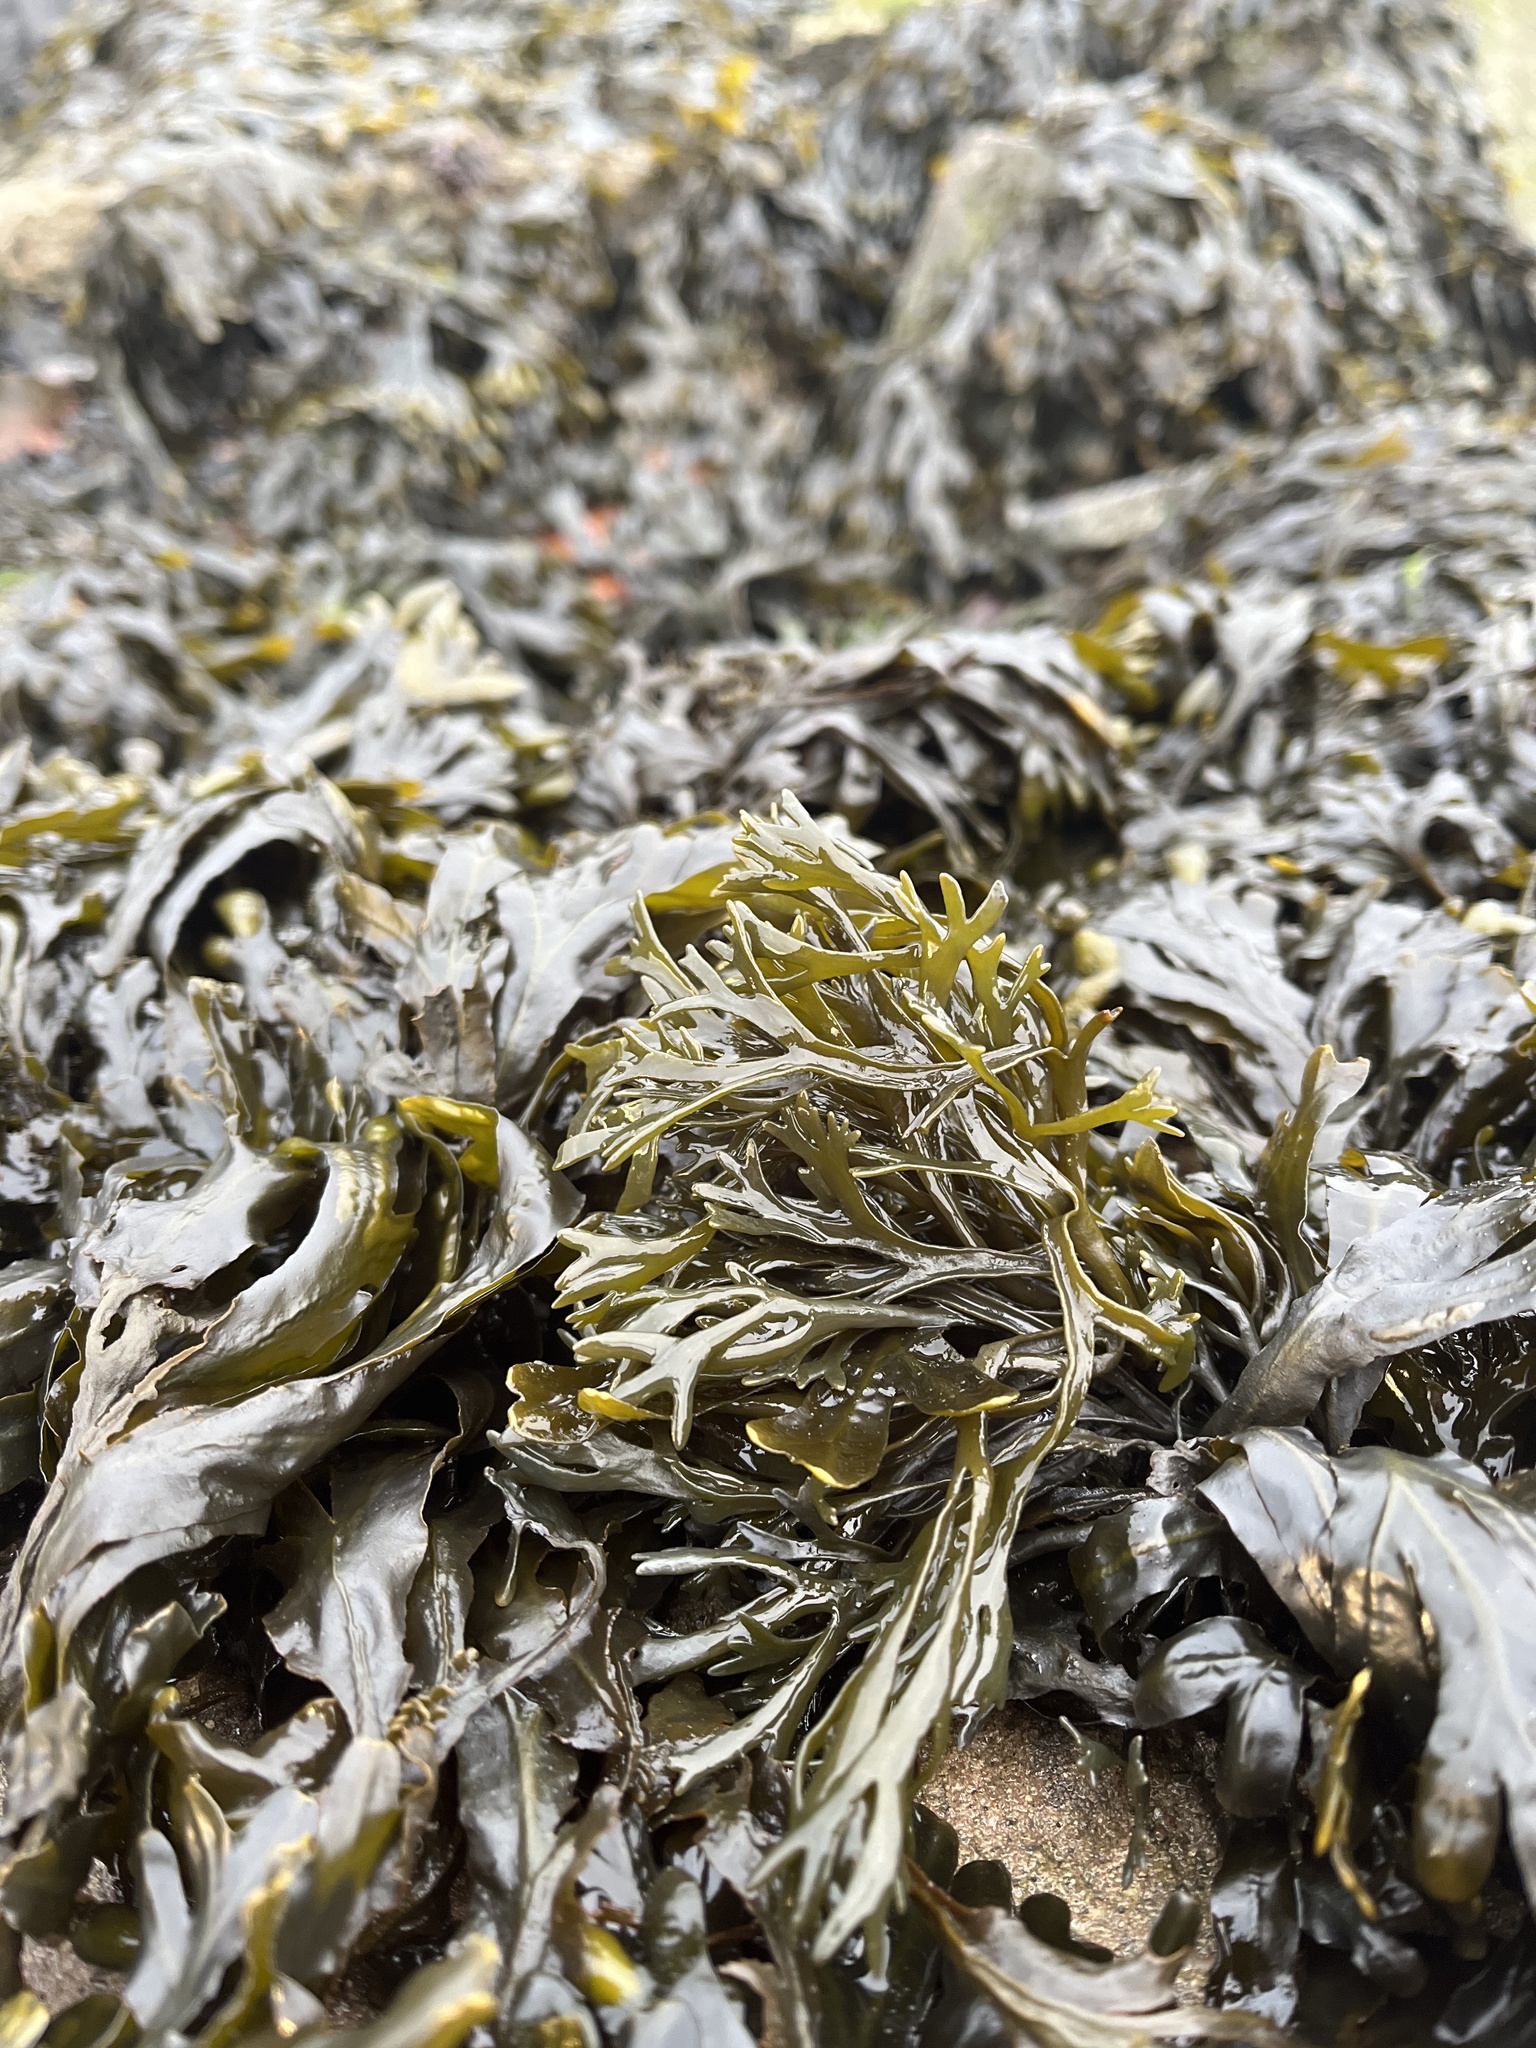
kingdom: Chromista
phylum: Ochrophyta
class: Phaeophyceae
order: Fucales
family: Fucaceae
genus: Pelvetia
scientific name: Pelvetia canaliculata
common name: Channelled wrack
